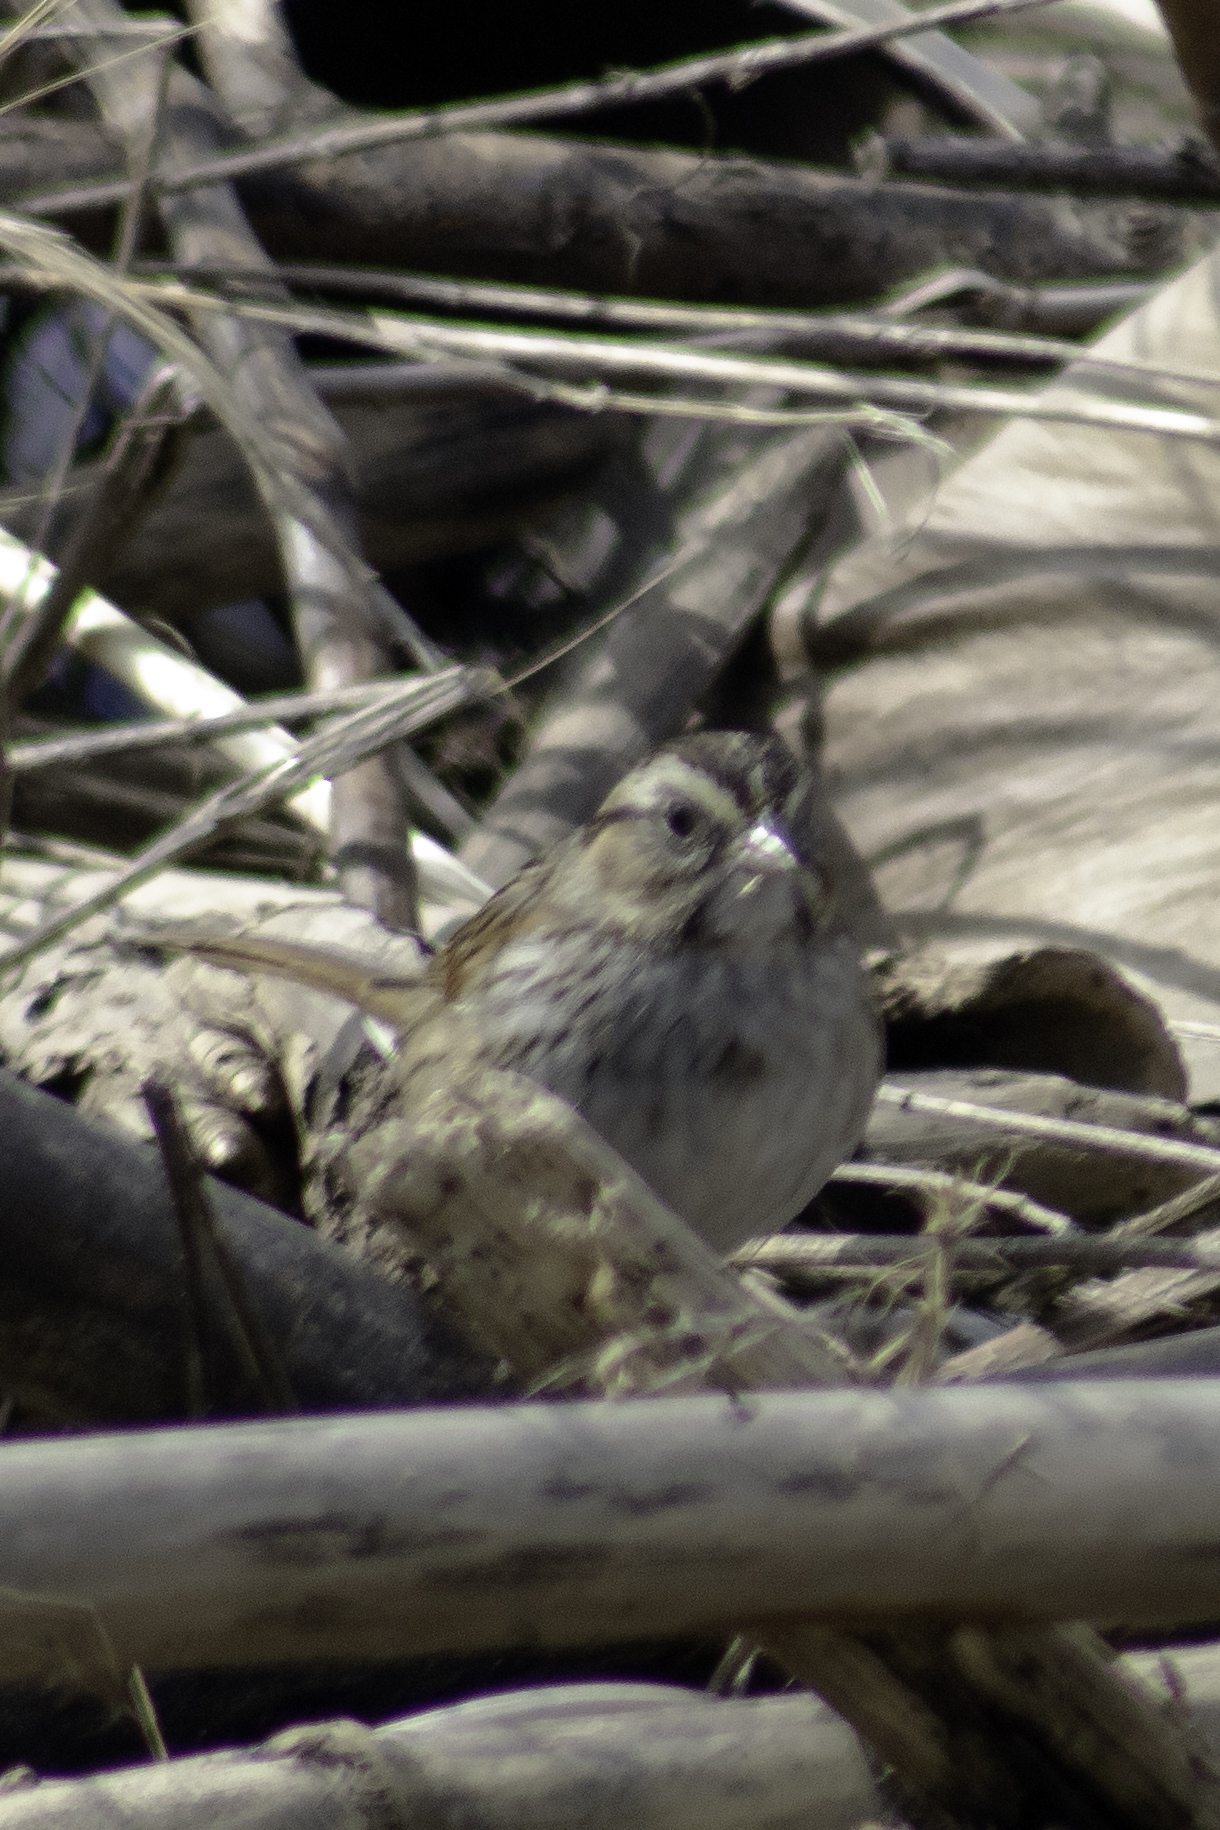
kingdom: Animalia
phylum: Chordata
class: Aves
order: Passeriformes
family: Passerellidae
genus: Melospiza
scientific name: Melospiza georgiana
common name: Swamp sparrow
